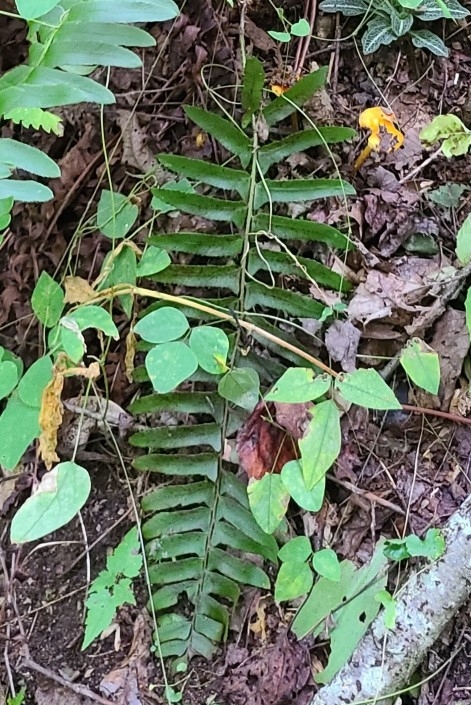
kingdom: Plantae
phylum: Tracheophyta
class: Polypodiopsida
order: Polypodiales
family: Dryopteridaceae
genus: Polystichum
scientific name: Polystichum acrostichoides
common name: Christmas fern
